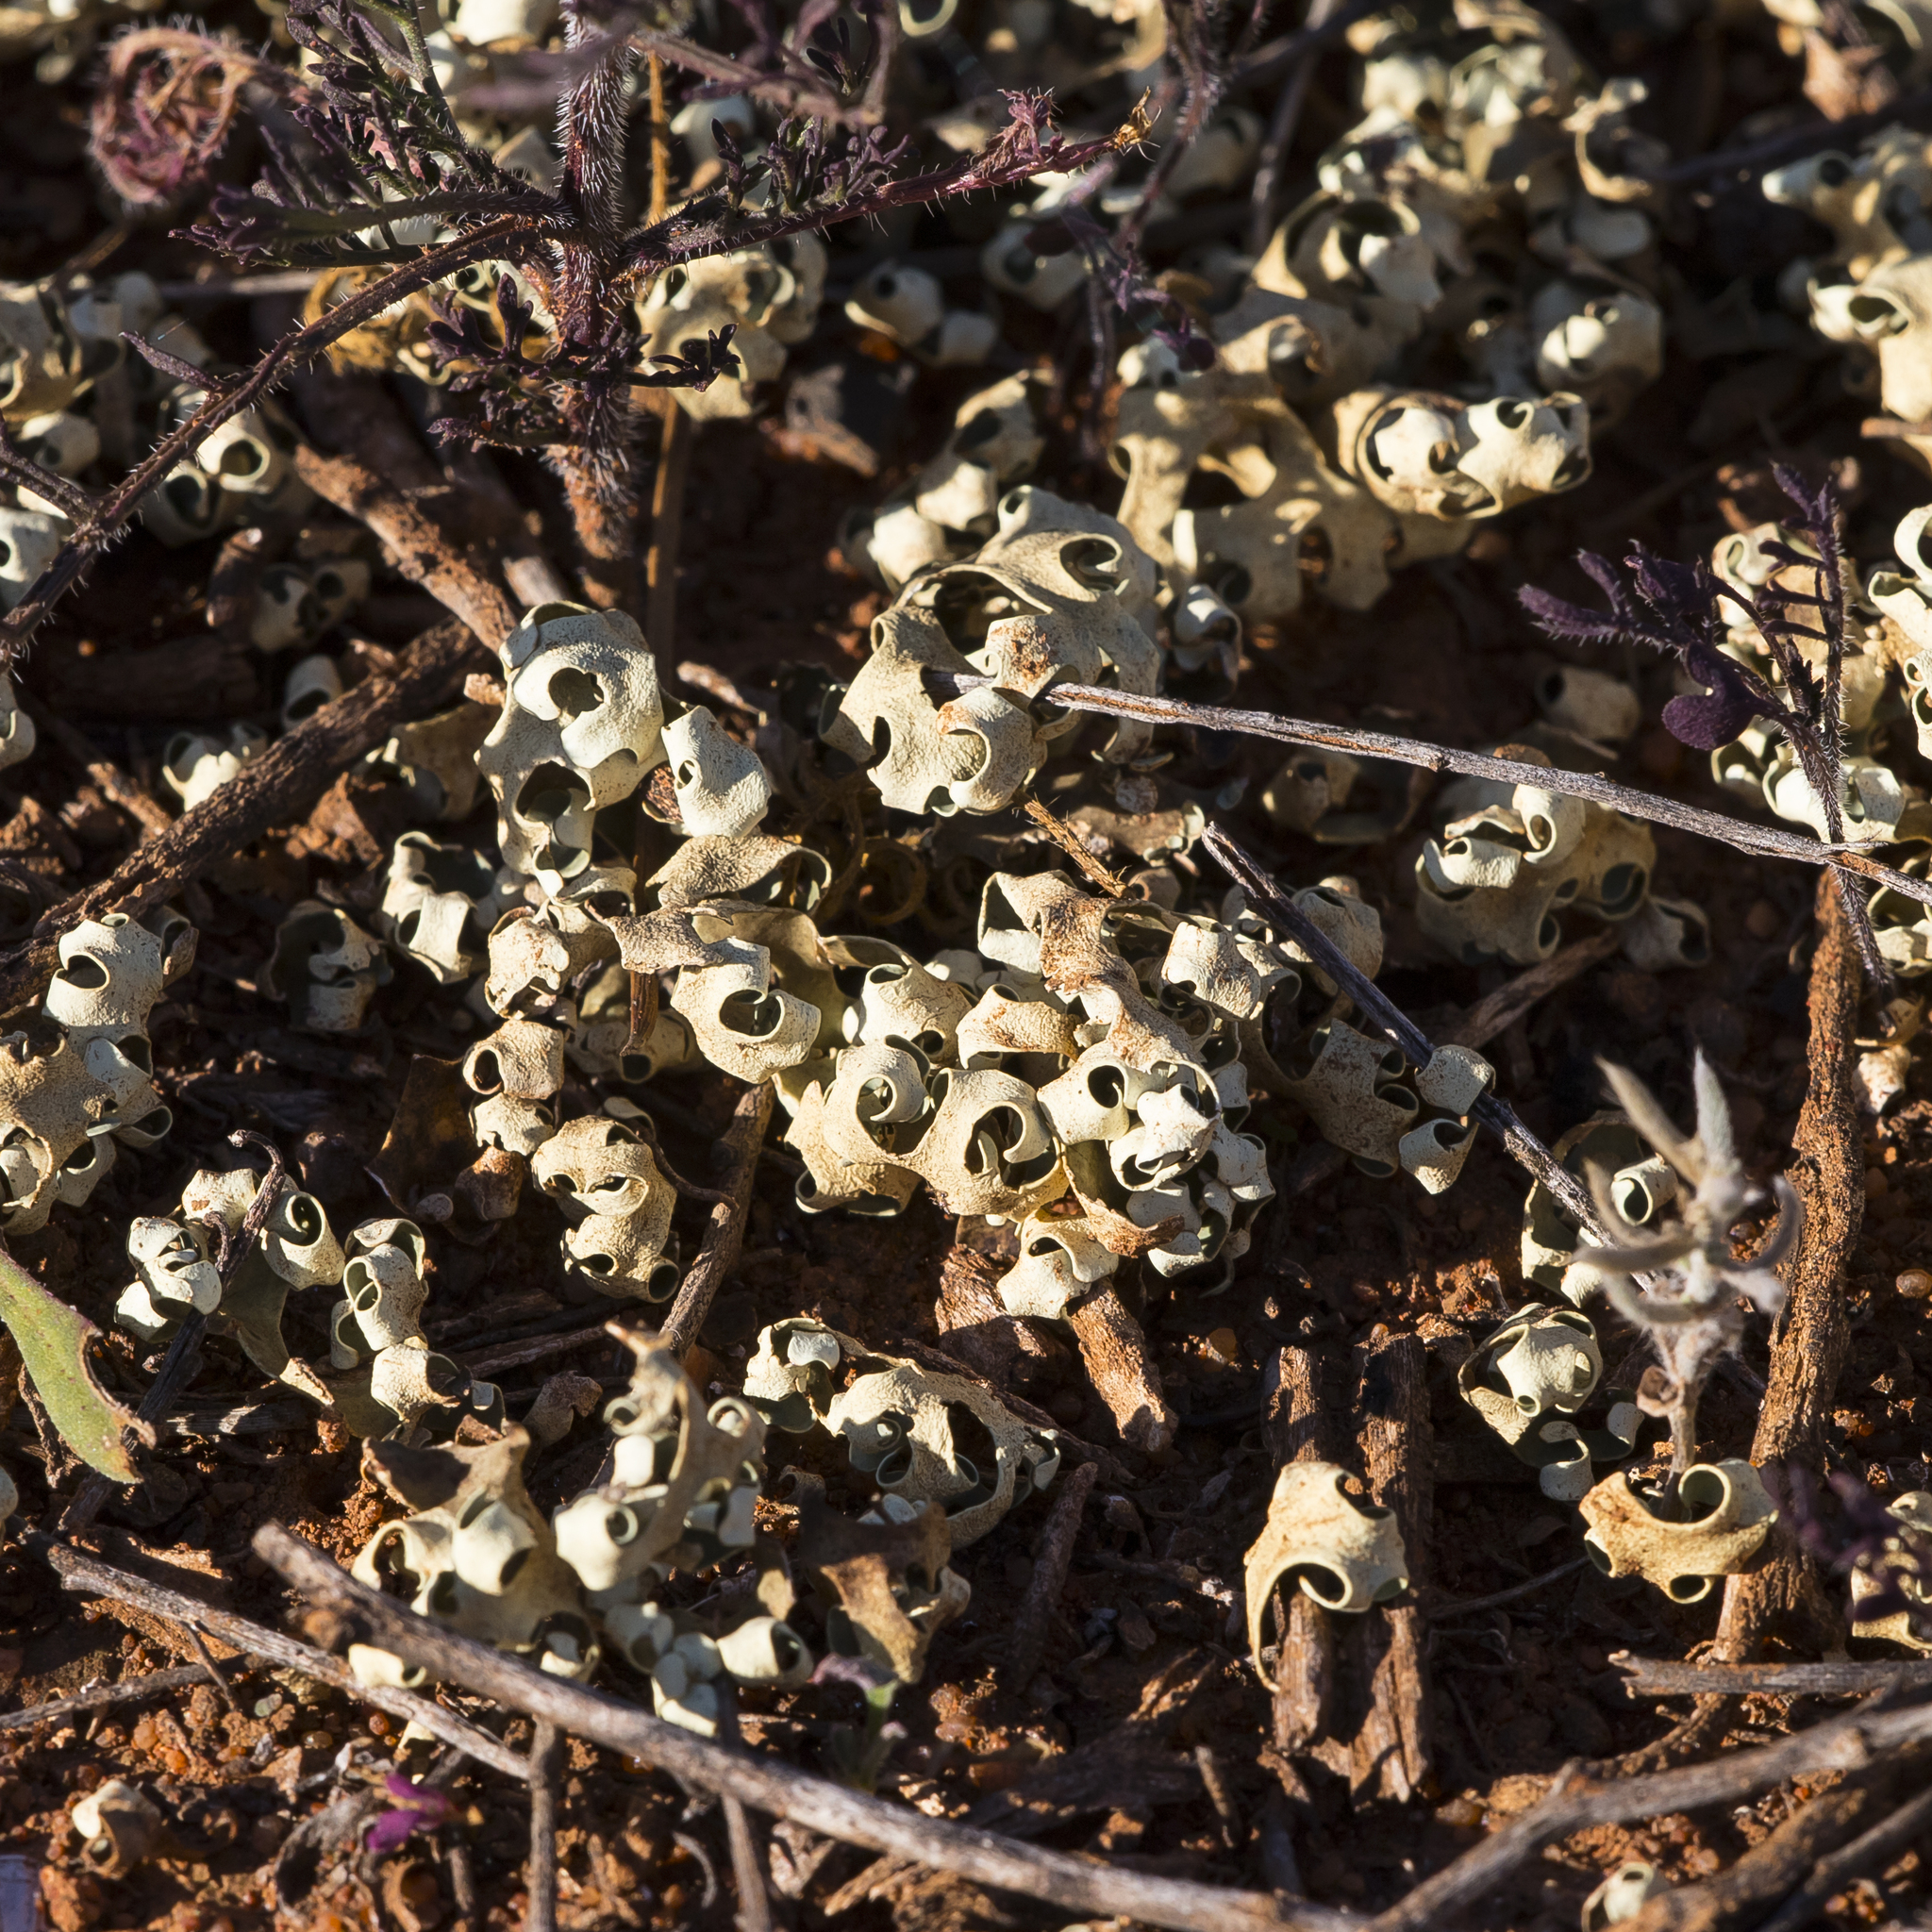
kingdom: Fungi
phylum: Ascomycota
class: Lecanoromycetes
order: Lecanorales
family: Parmeliaceae
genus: Xanthoparmelia
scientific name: Xanthoparmelia semiviridis
